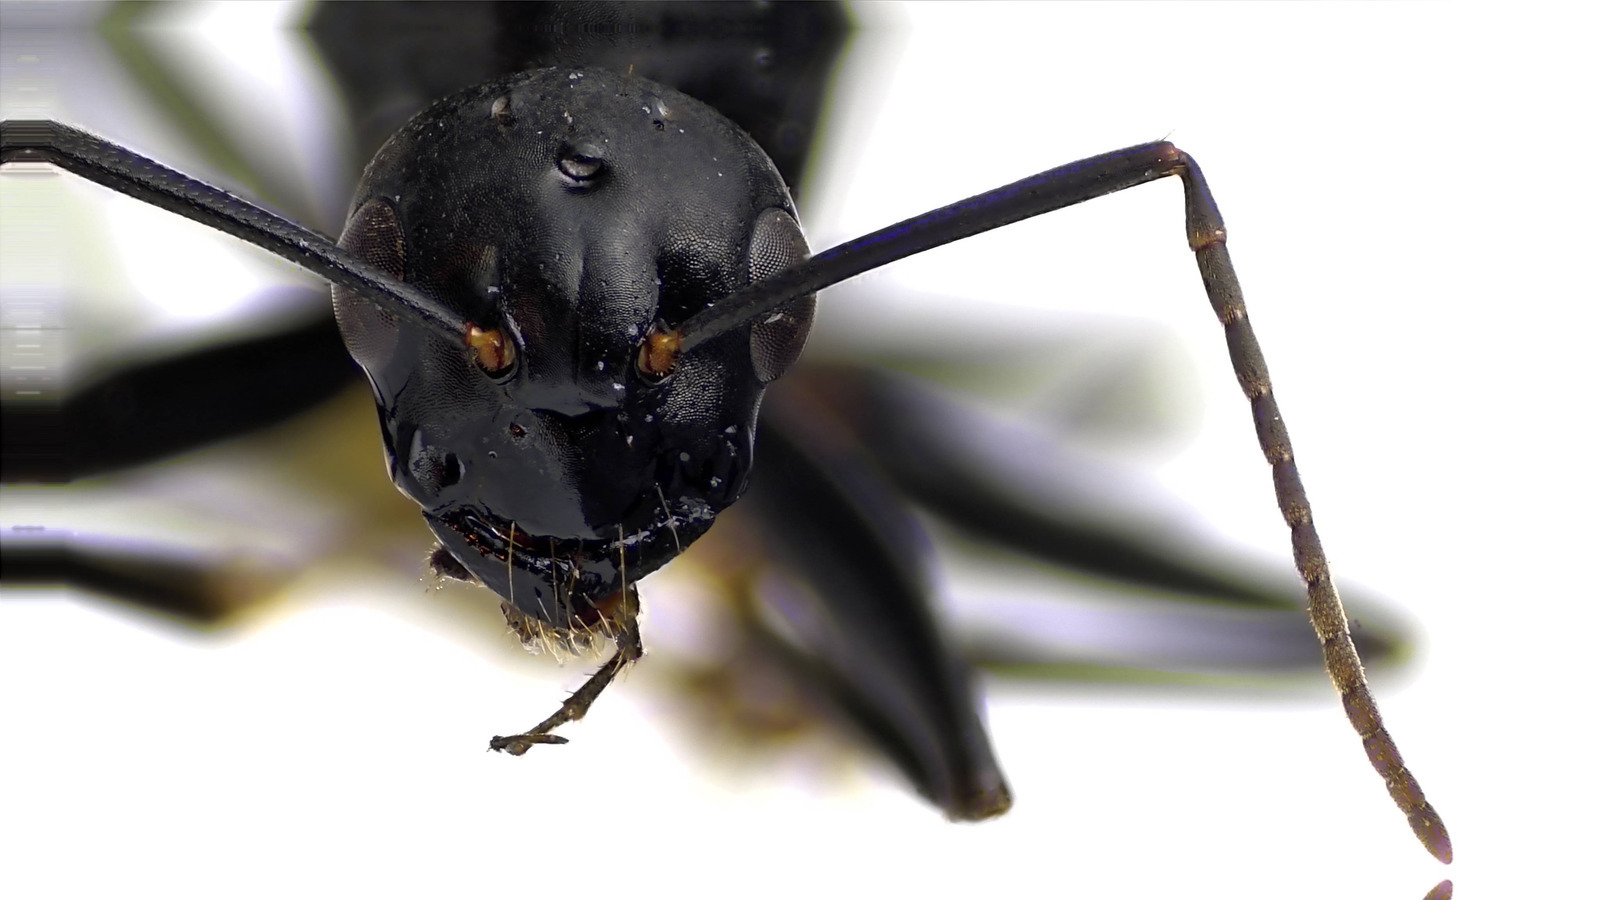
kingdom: Animalia
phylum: Arthropoda
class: Insecta
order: Hymenoptera
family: Formicidae
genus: Camponotus
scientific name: Camponotus pennsylvanicus
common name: Black carpenter ant
